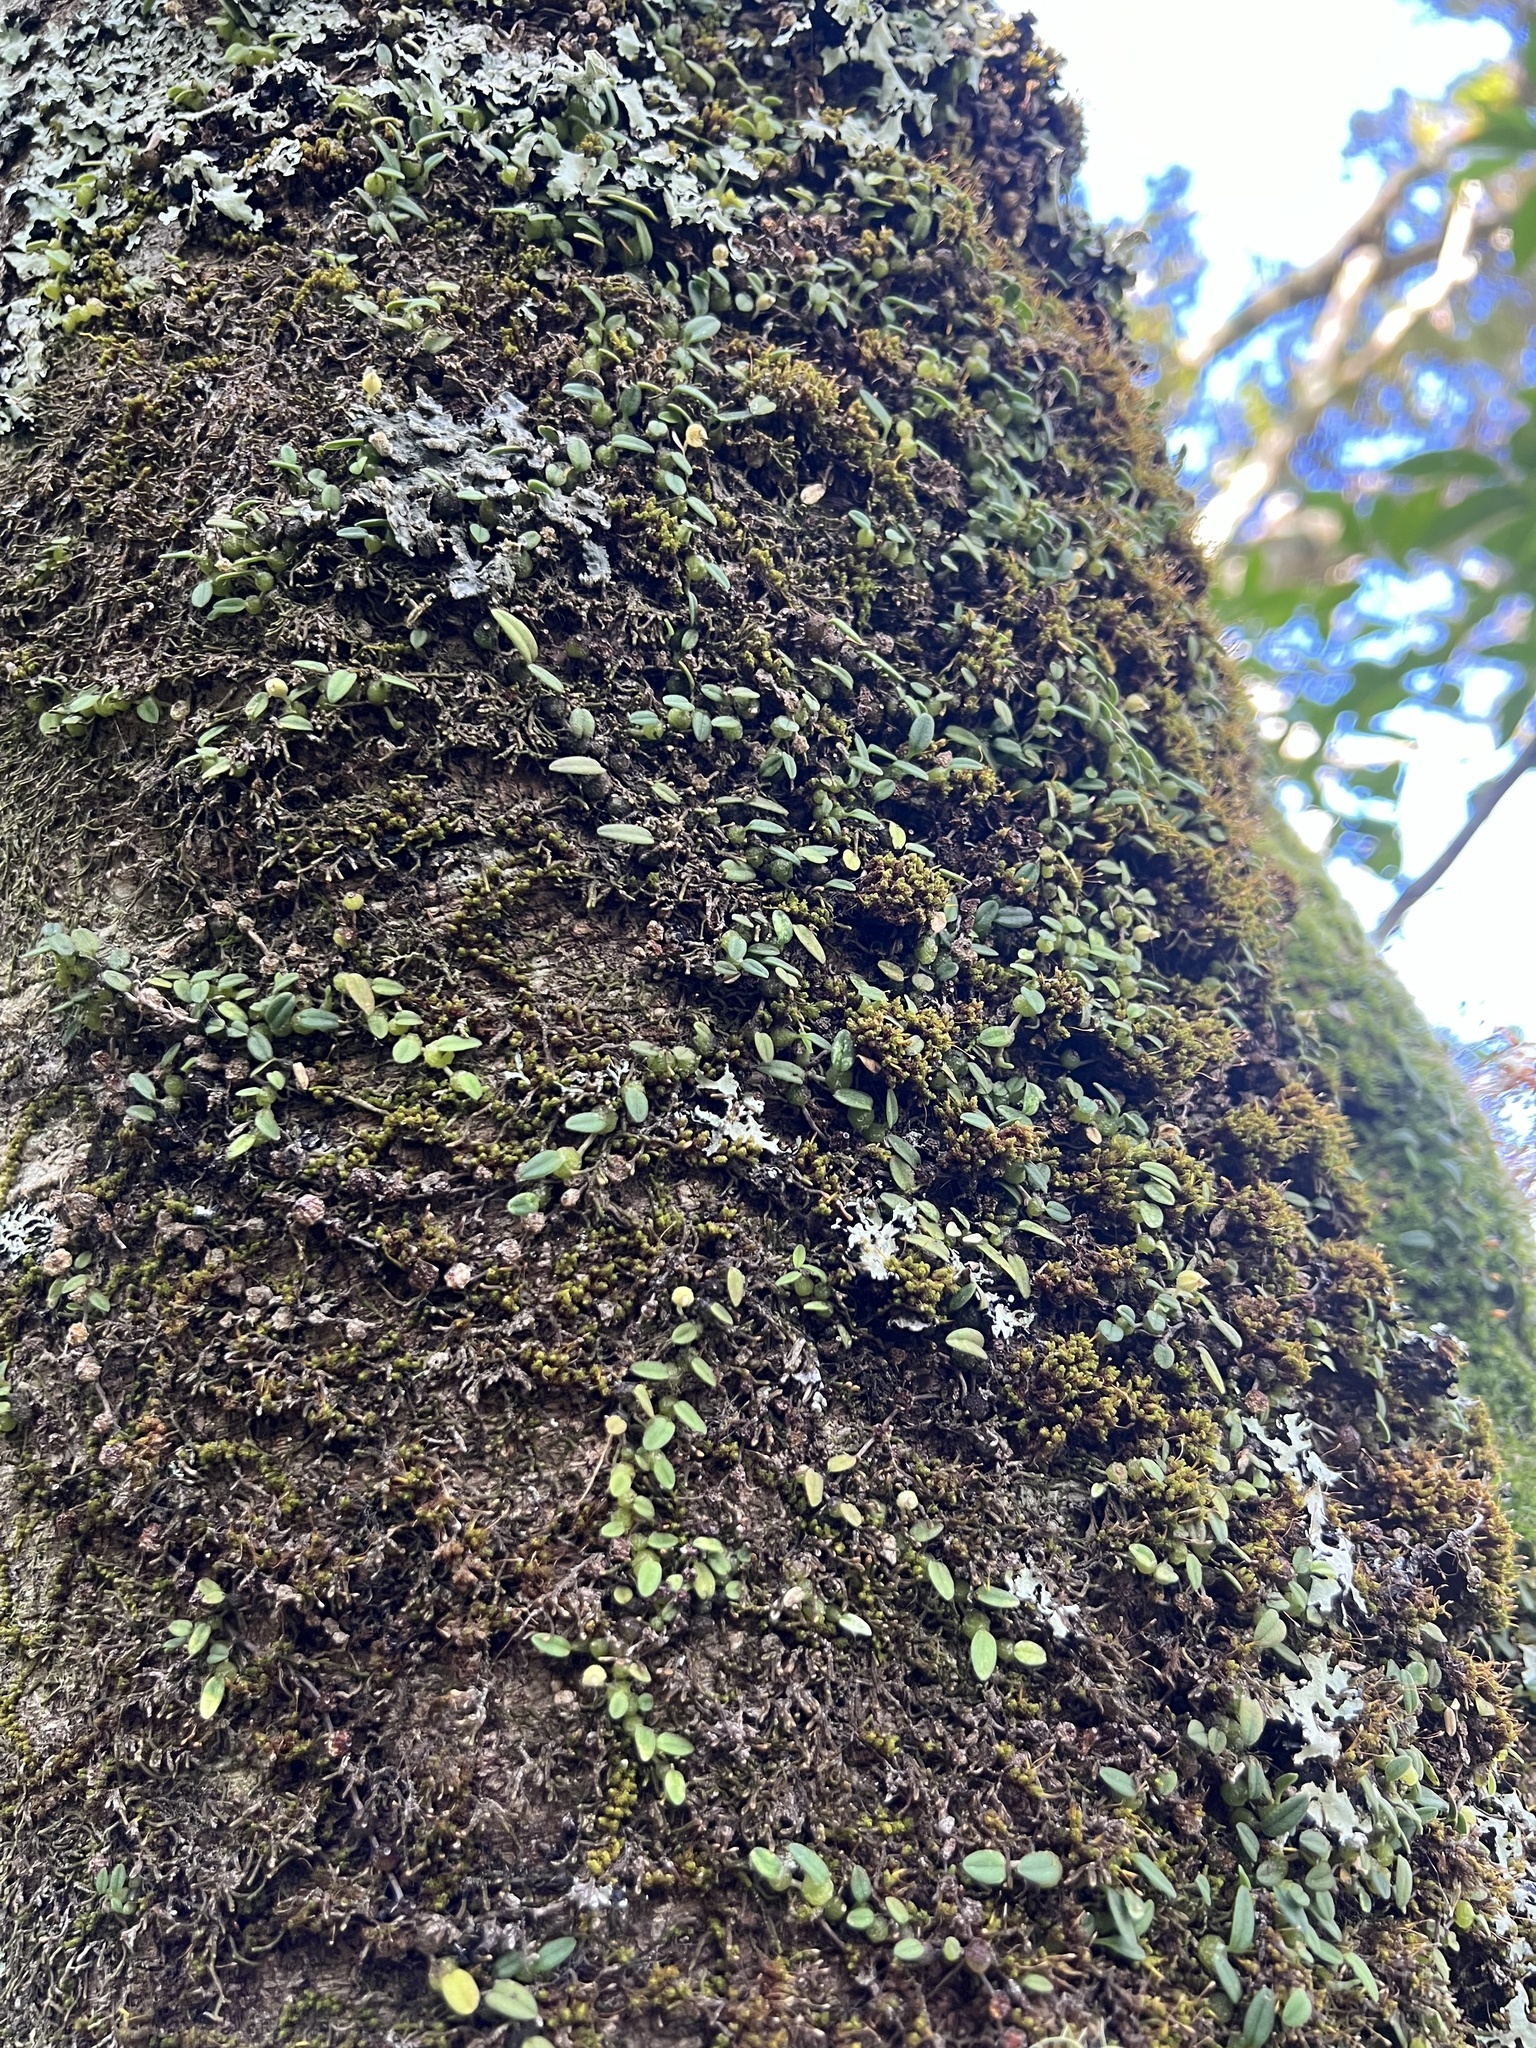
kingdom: Plantae
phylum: Tracheophyta
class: Liliopsida
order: Asparagales
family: Orchidaceae
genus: Bulbophyllum
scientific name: Bulbophyllum pygmaeum
